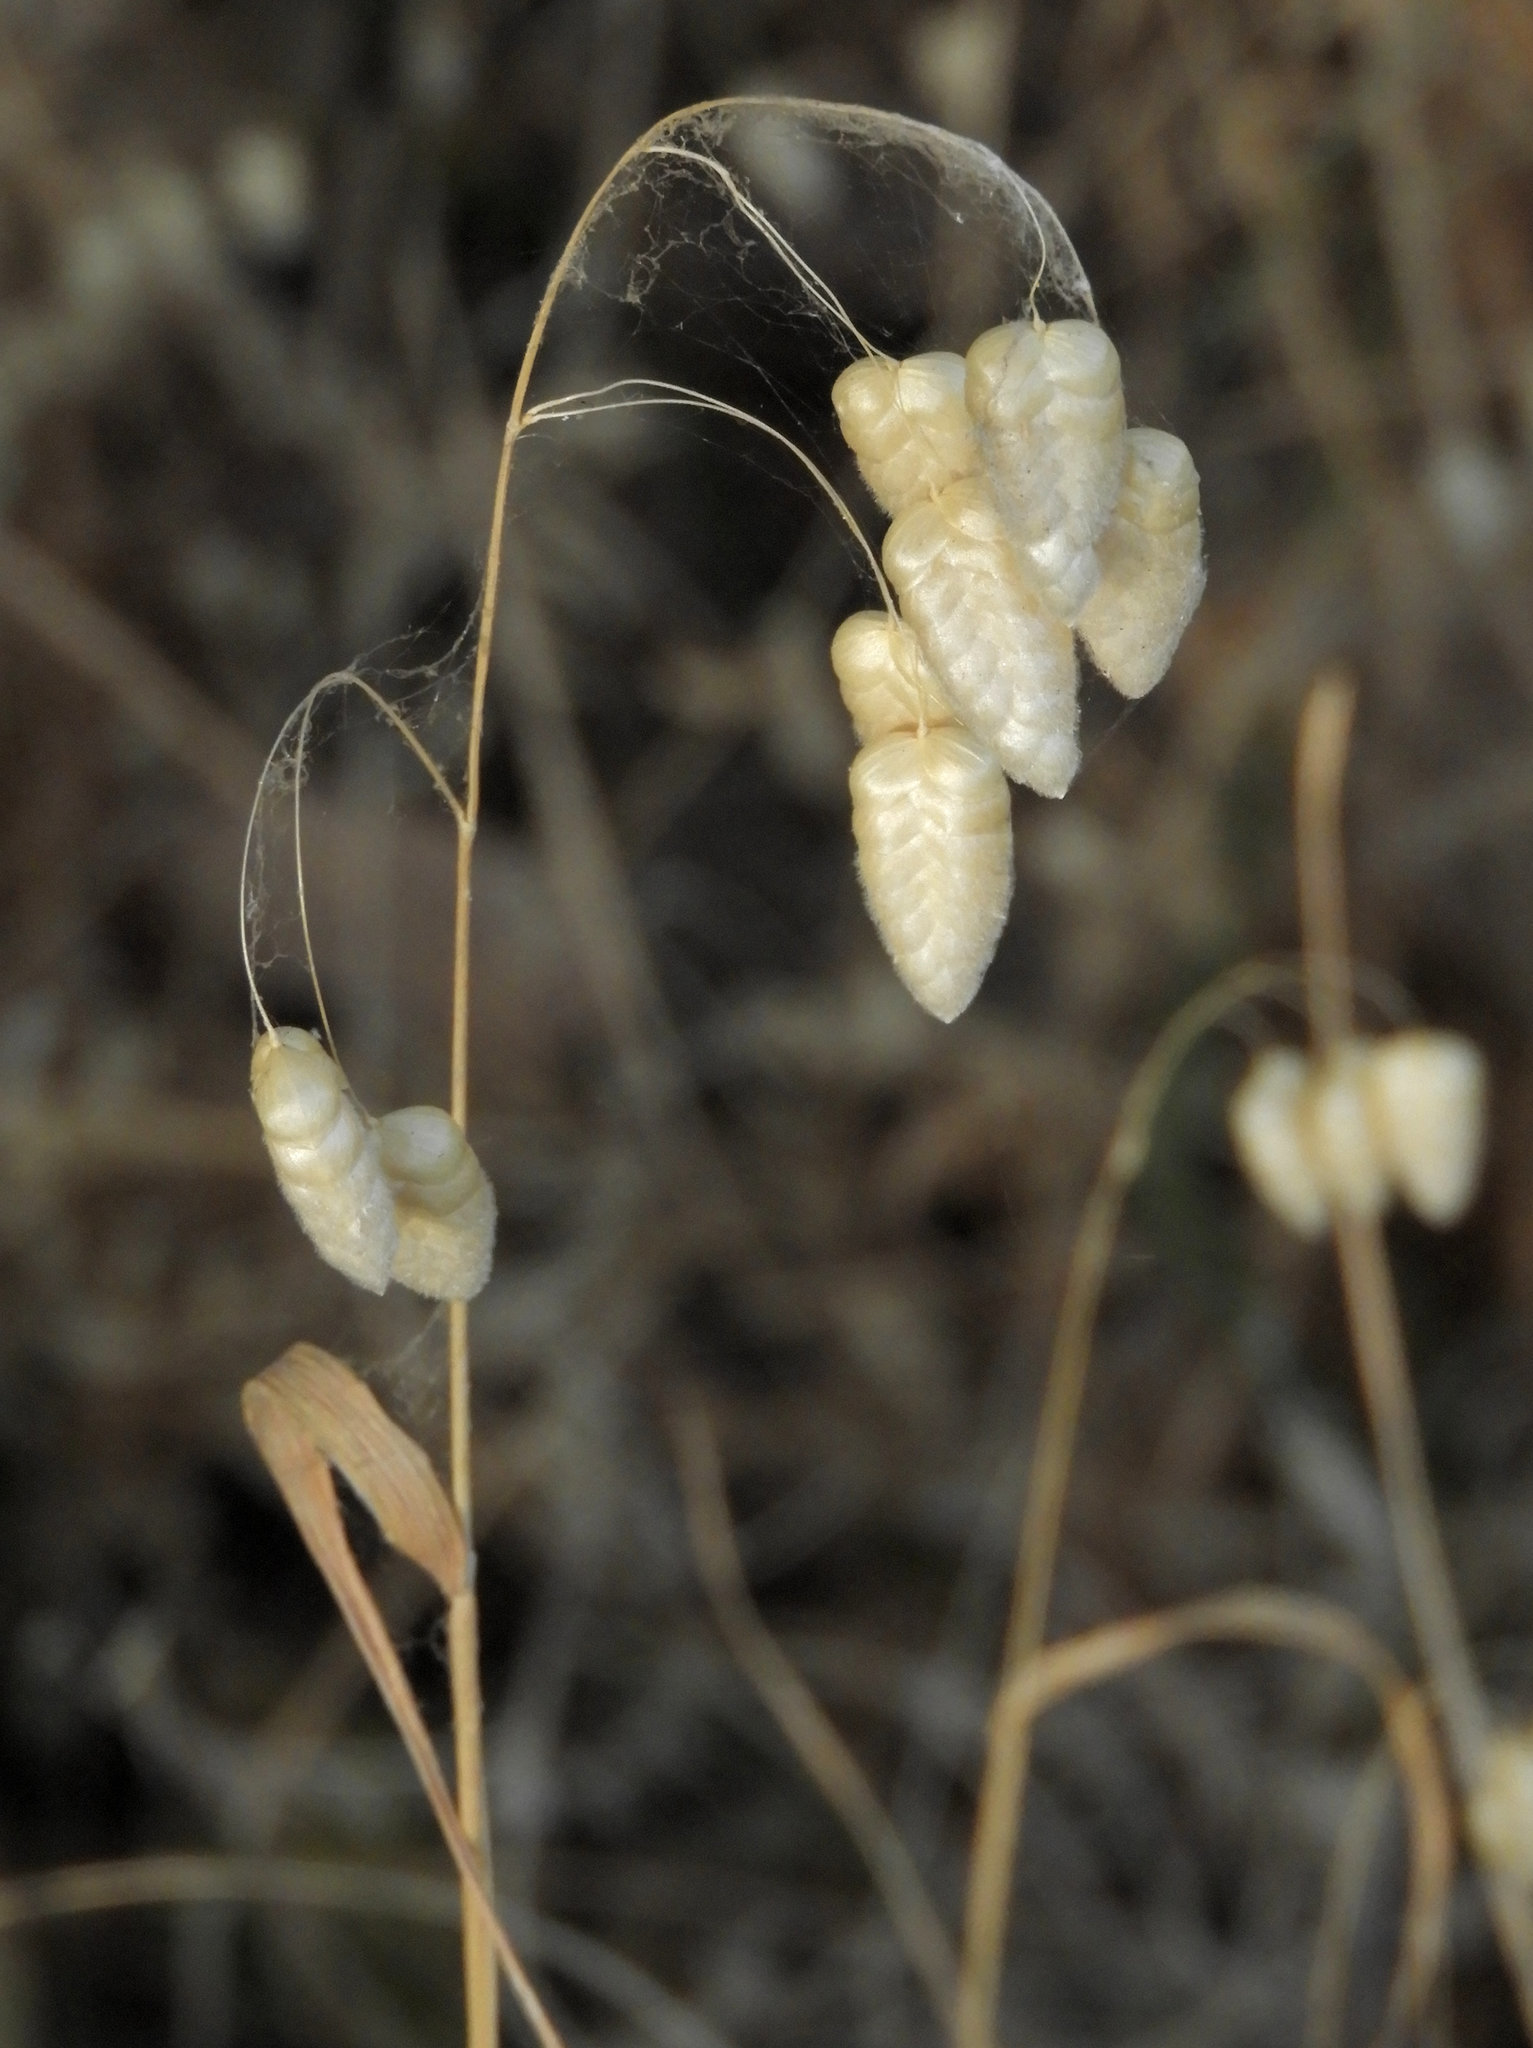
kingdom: Plantae
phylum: Tracheophyta
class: Liliopsida
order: Poales
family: Poaceae
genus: Briza
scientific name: Briza maxima
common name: Big quakinggrass
